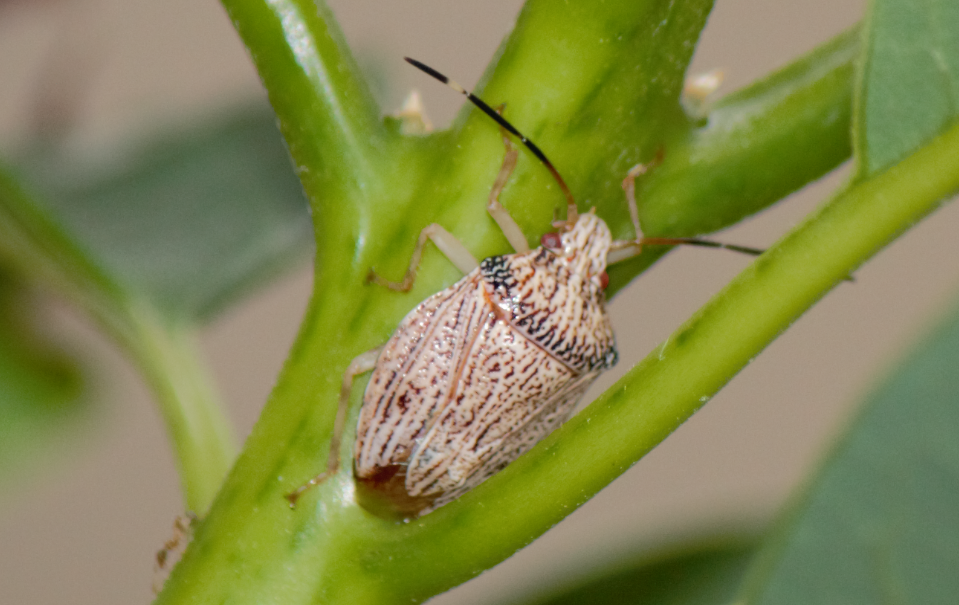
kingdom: Animalia
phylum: Arthropoda
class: Insecta
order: Hemiptera
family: Pentatomidae
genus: Antiteuchus
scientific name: Antiteuchus macraspis
